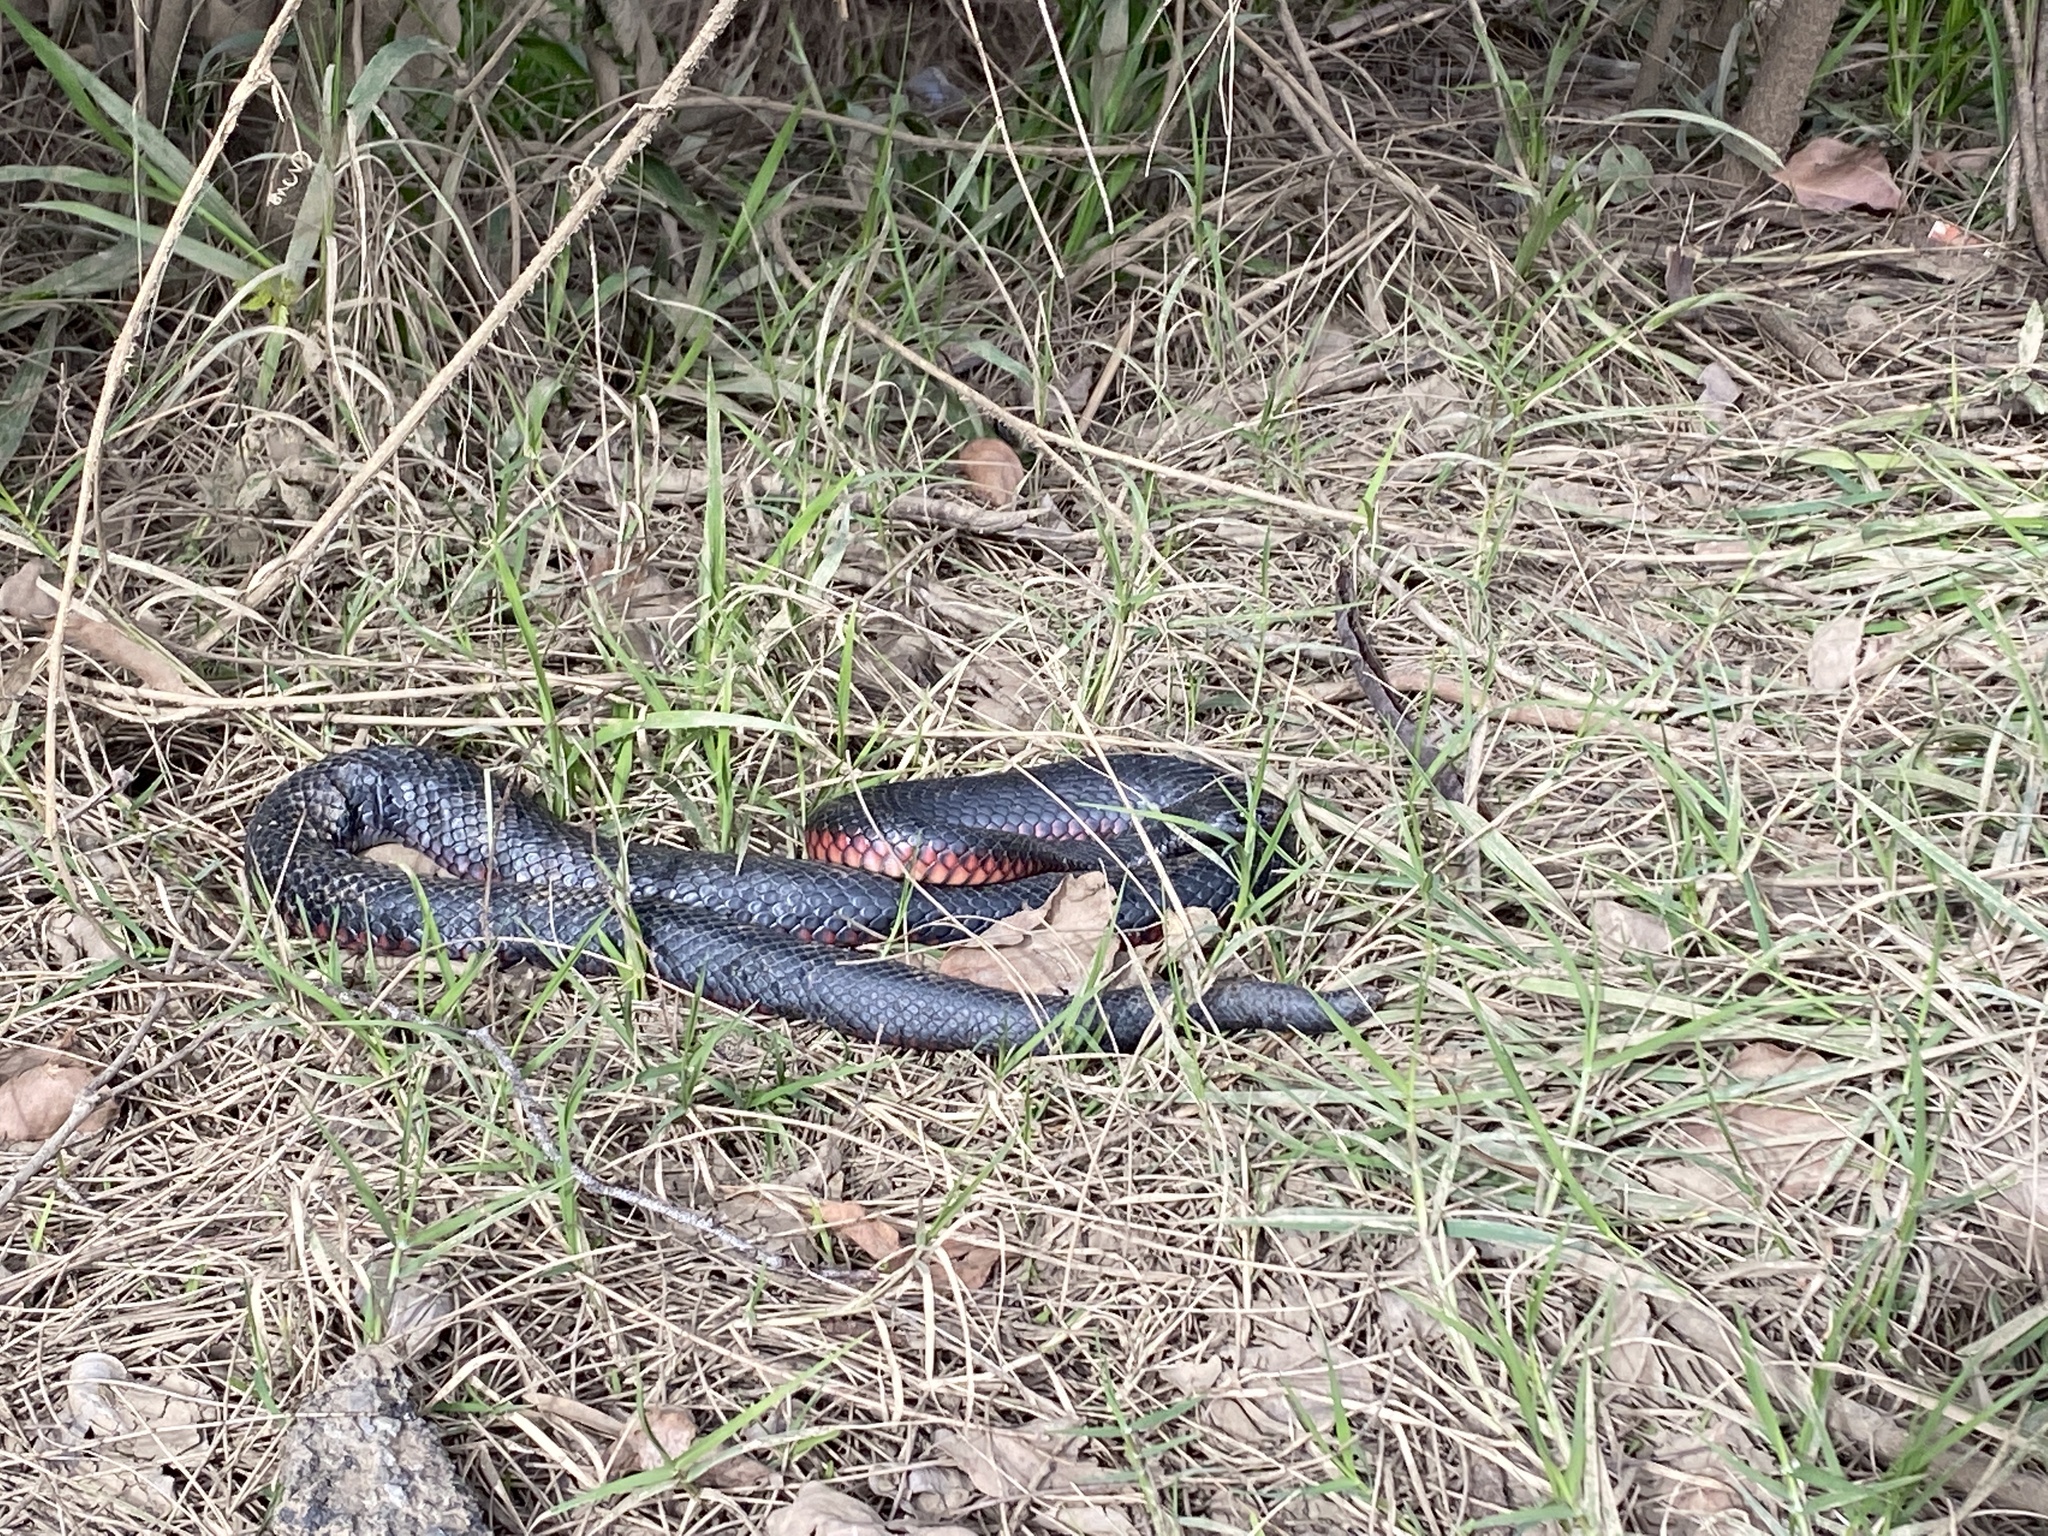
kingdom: Animalia
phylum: Chordata
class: Squamata
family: Elapidae
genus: Pseudechis
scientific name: Pseudechis porphyriacus
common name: Australian black snake
